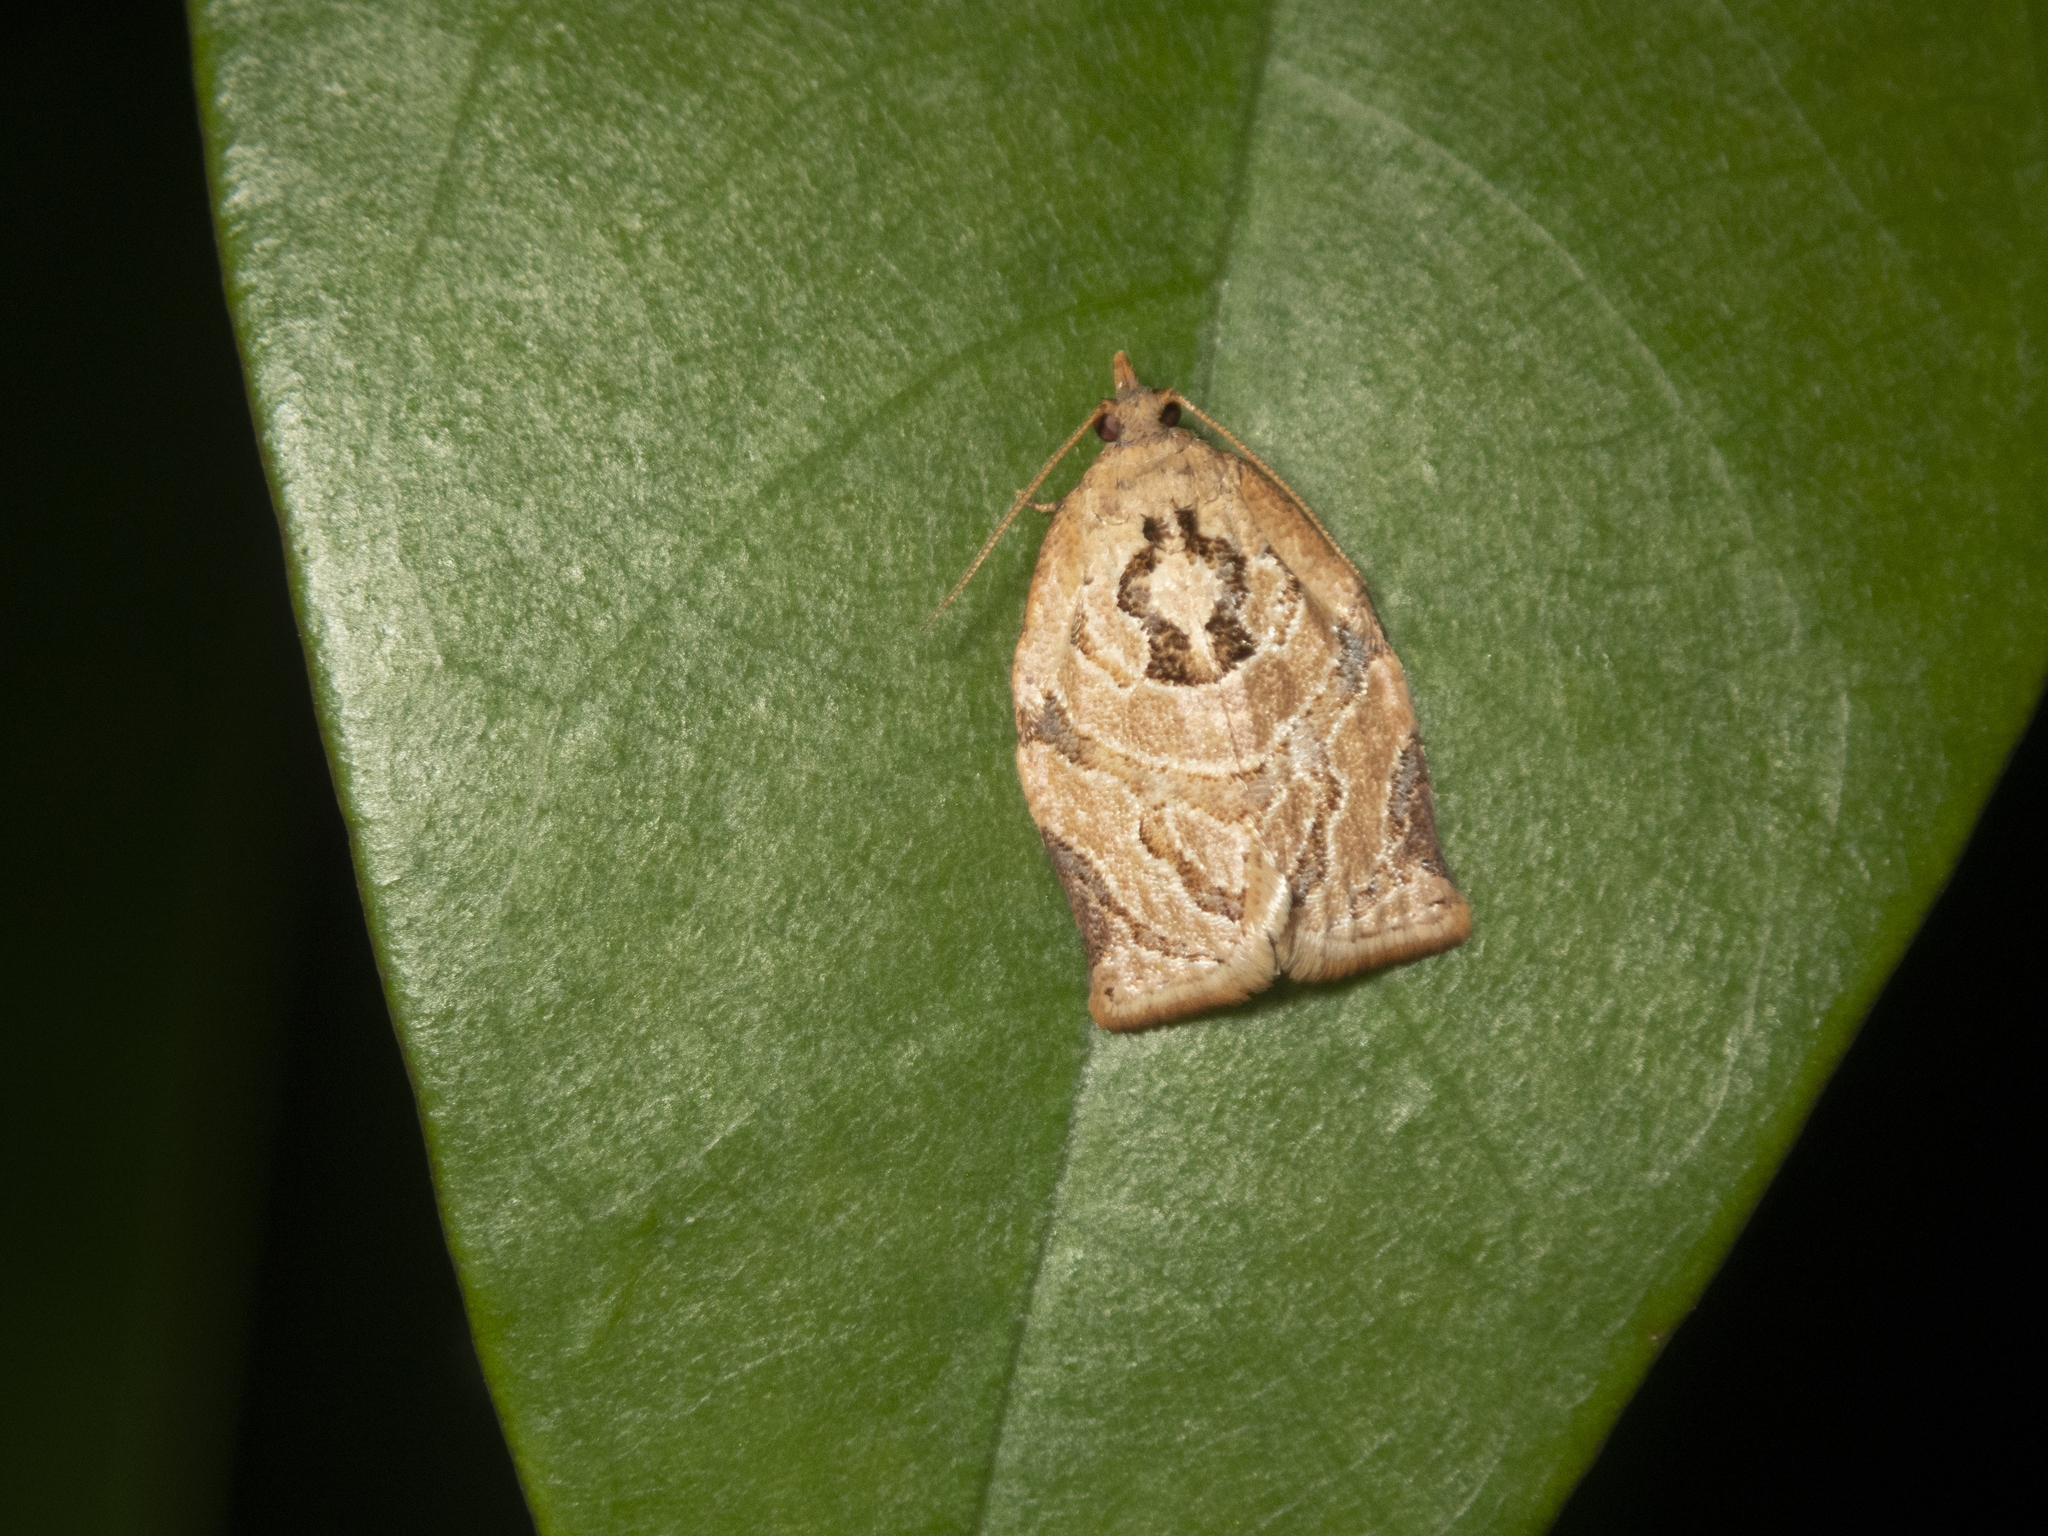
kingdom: Animalia
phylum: Arthropoda
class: Insecta
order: Lepidoptera
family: Tortricidae
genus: Adoxophyes
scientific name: Adoxophyes privatana
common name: Asian orchid tortrix
